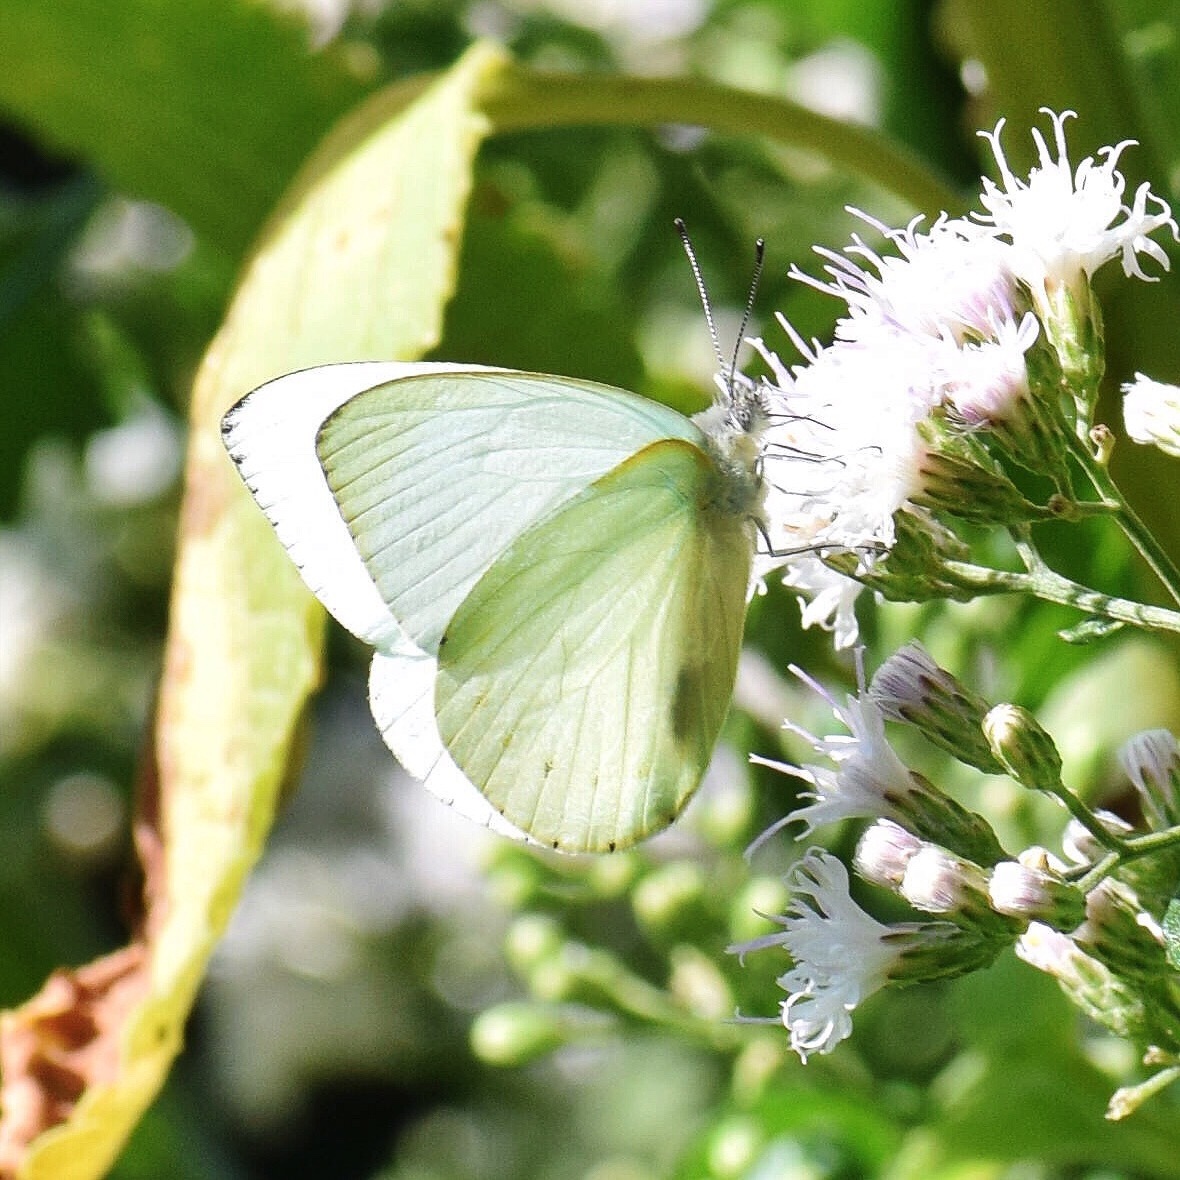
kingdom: Animalia
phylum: Arthropoda
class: Insecta
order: Lepidoptera
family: Pieridae
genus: Dixeia
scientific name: Dixeia pigea
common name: Ant-heap small white
